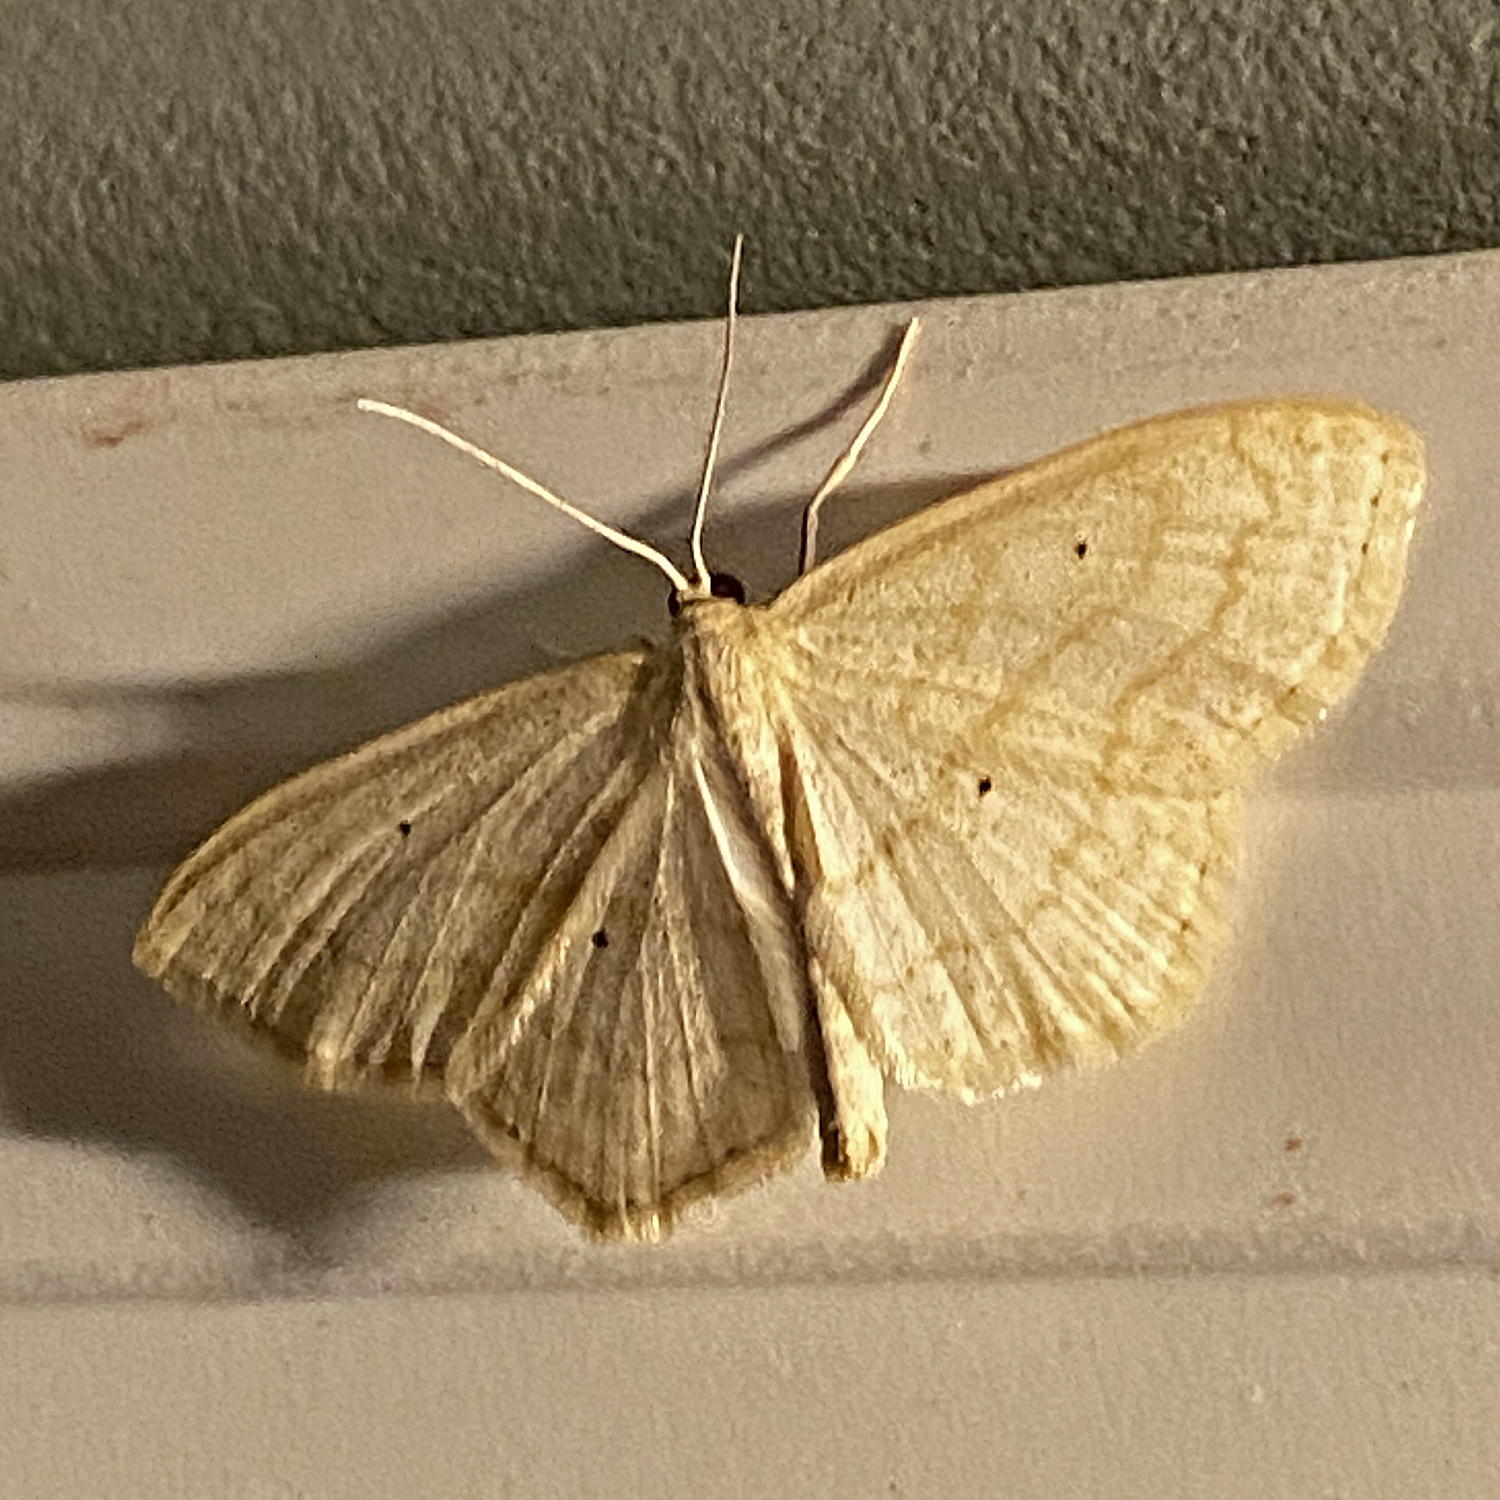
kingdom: Animalia
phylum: Arthropoda
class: Insecta
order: Lepidoptera
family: Geometridae
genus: Scopula
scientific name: Scopula limboundata
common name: Large lace border
